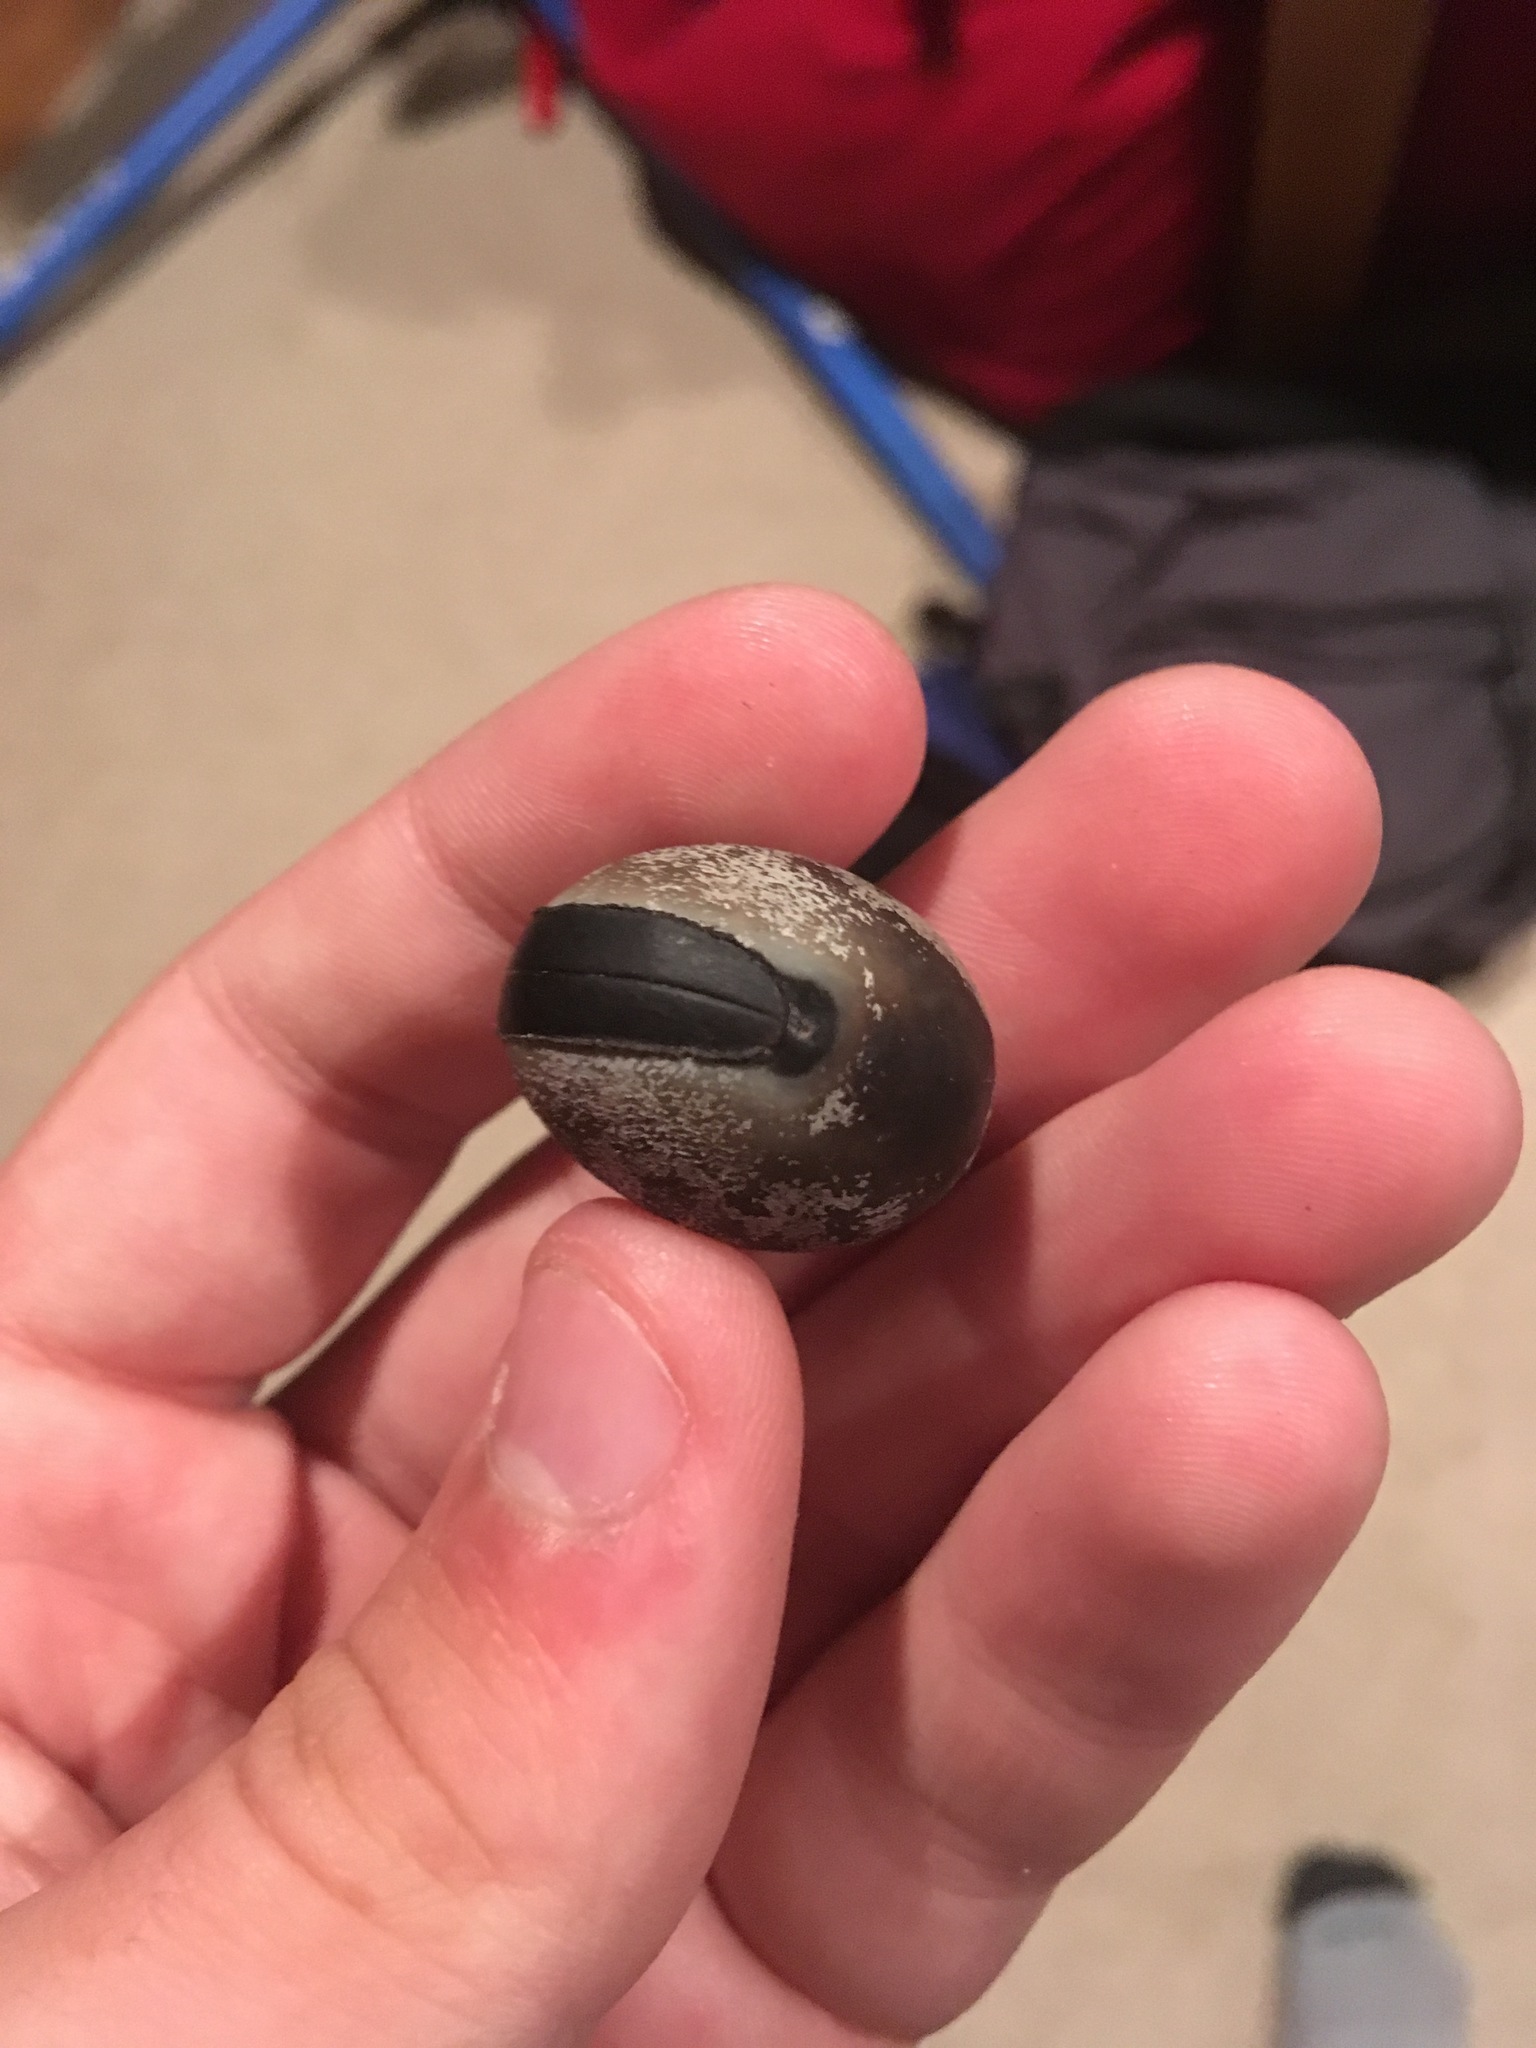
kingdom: Plantae
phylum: Tracheophyta
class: Magnoliopsida
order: Fabales
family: Fabaceae
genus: Mucuna
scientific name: Mucuna sloanei
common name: Horse-eye bean
